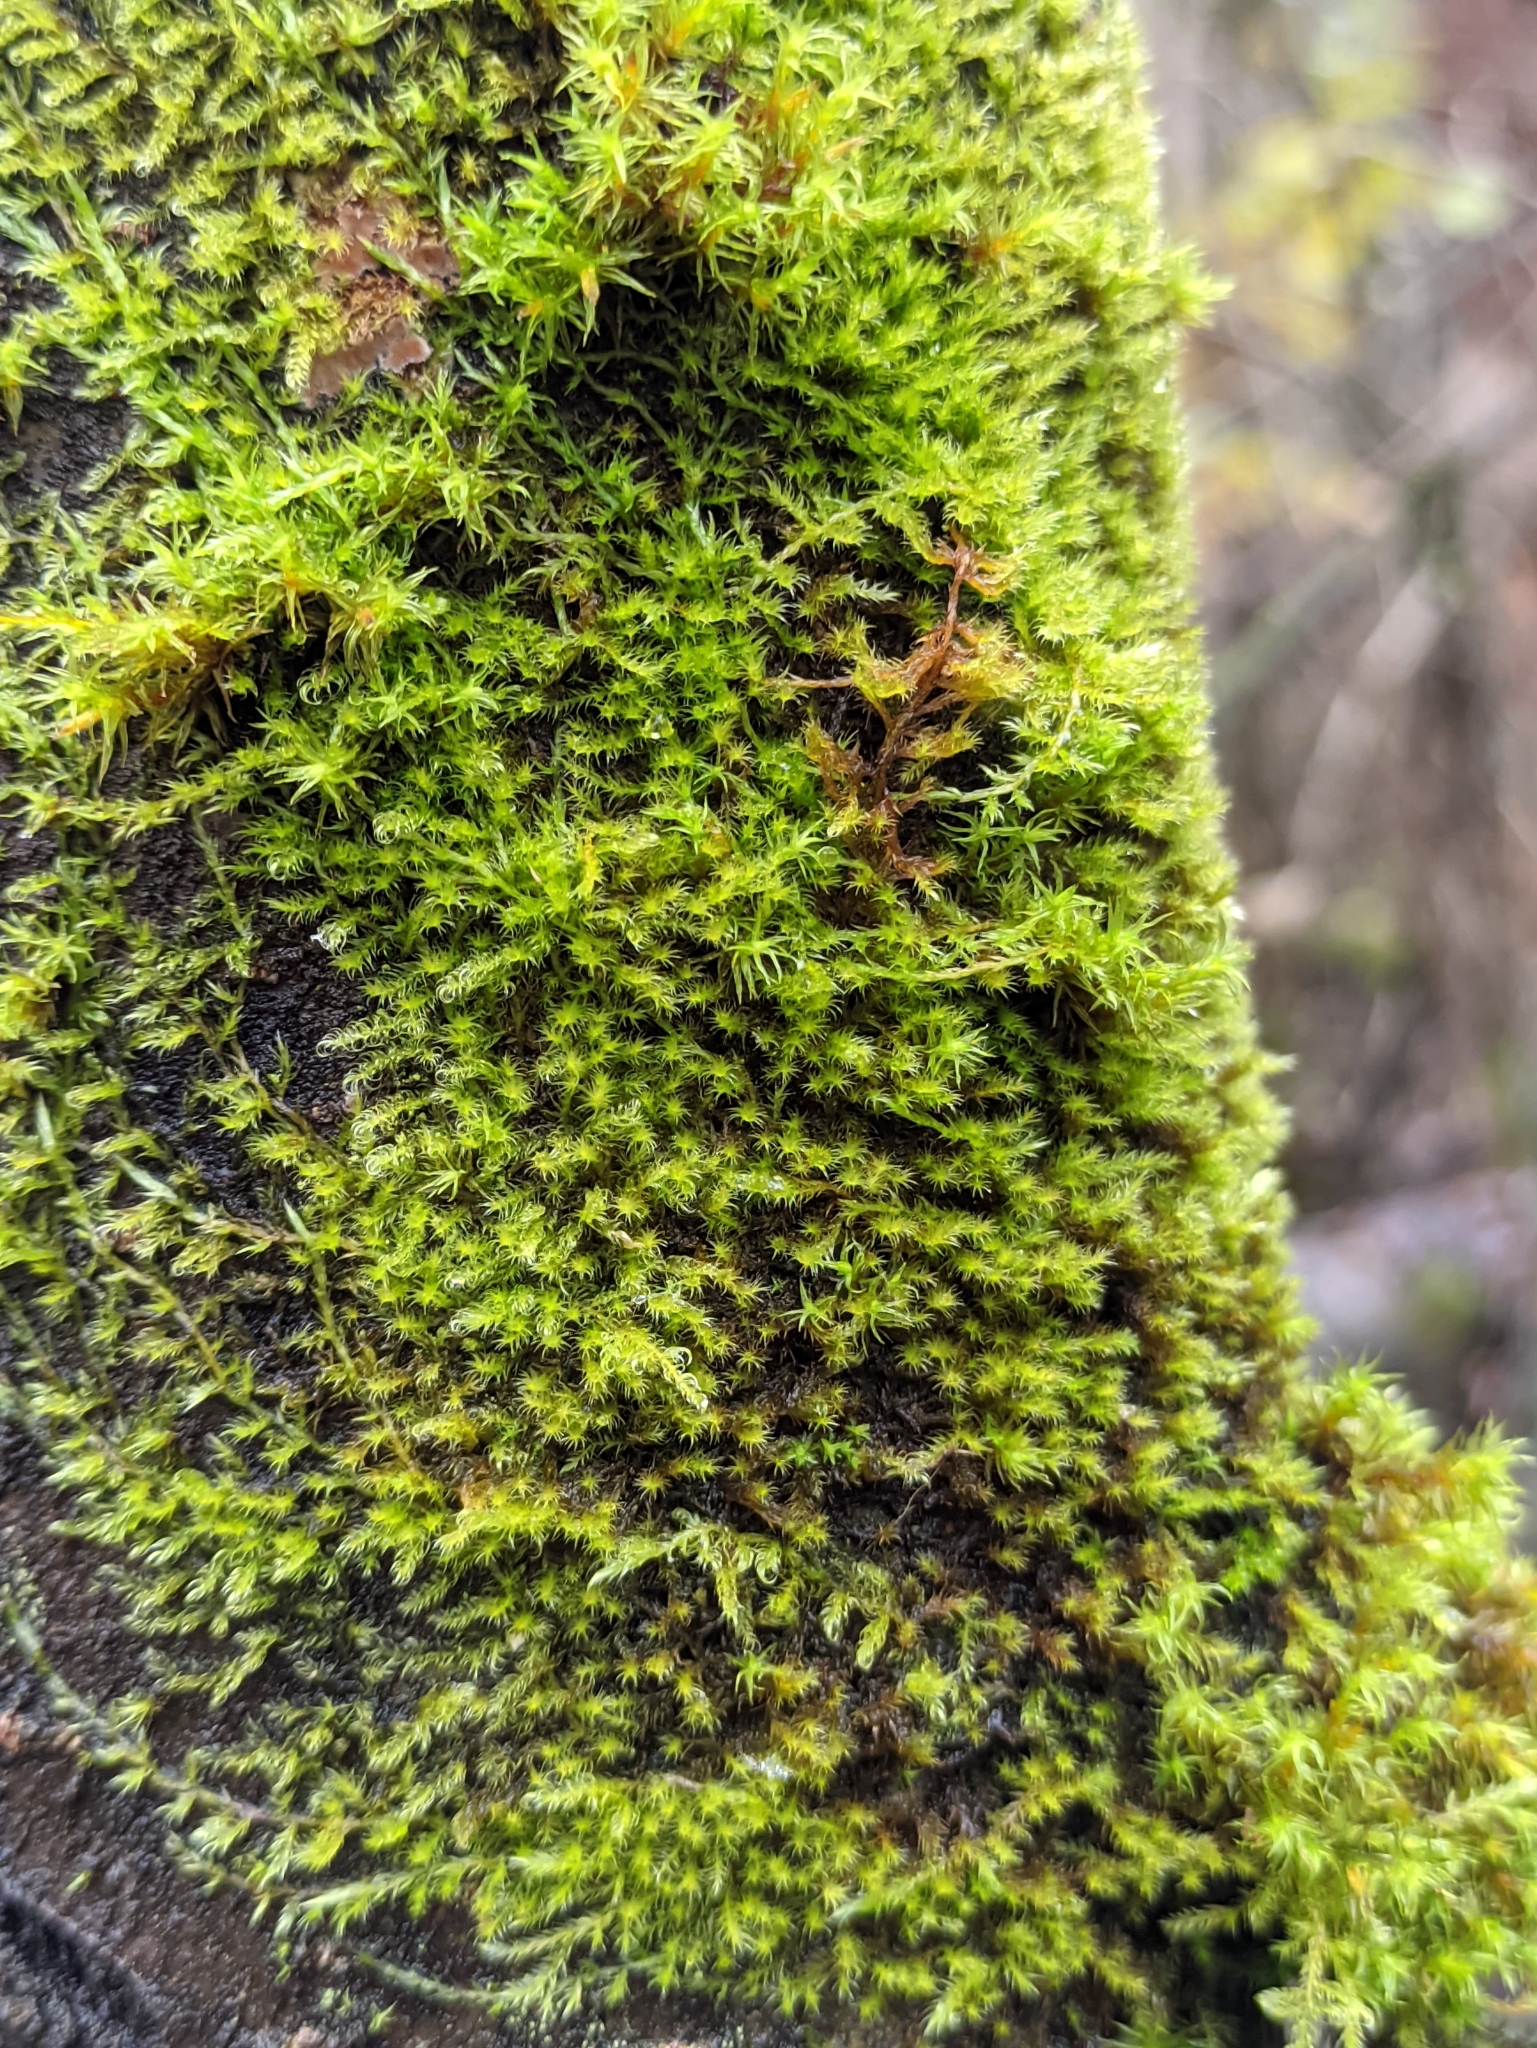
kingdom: Plantae
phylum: Bryophyta
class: Bryopsida
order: Hypnales
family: Scorpidiaceae
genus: Sanionia
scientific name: Sanionia uncinata
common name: Sickle moss
